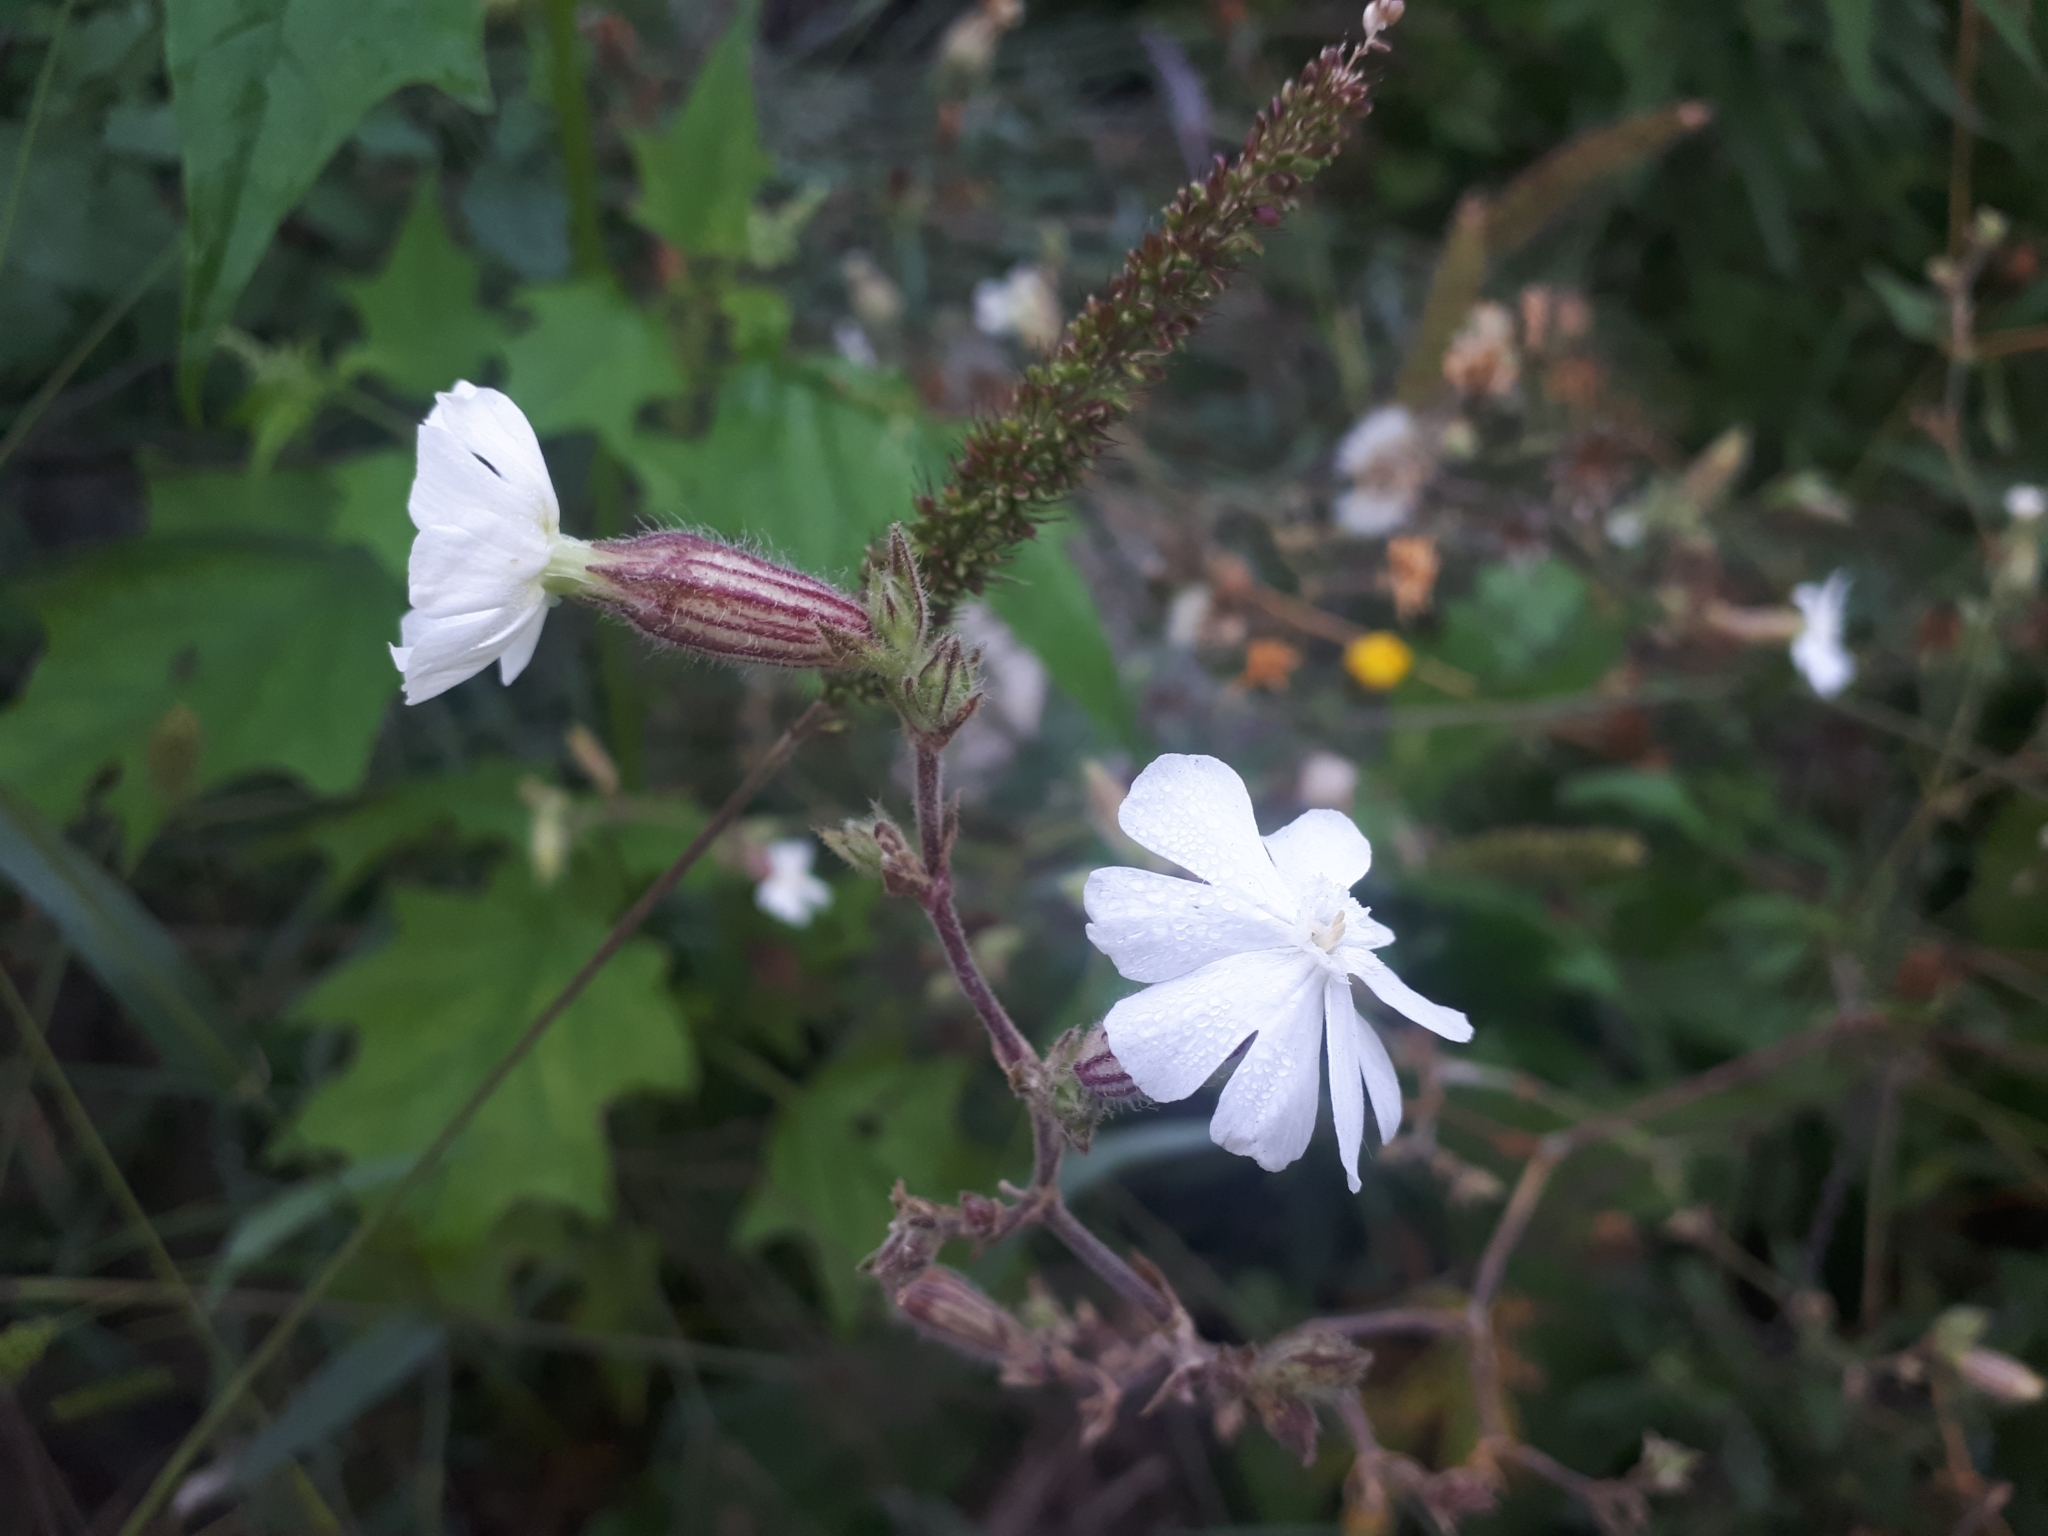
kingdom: Plantae
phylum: Tracheophyta
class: Magnoliopsida
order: Caryophyllales
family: Caryophyllaceae
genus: Silene
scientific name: Silene latifolia
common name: White campion
